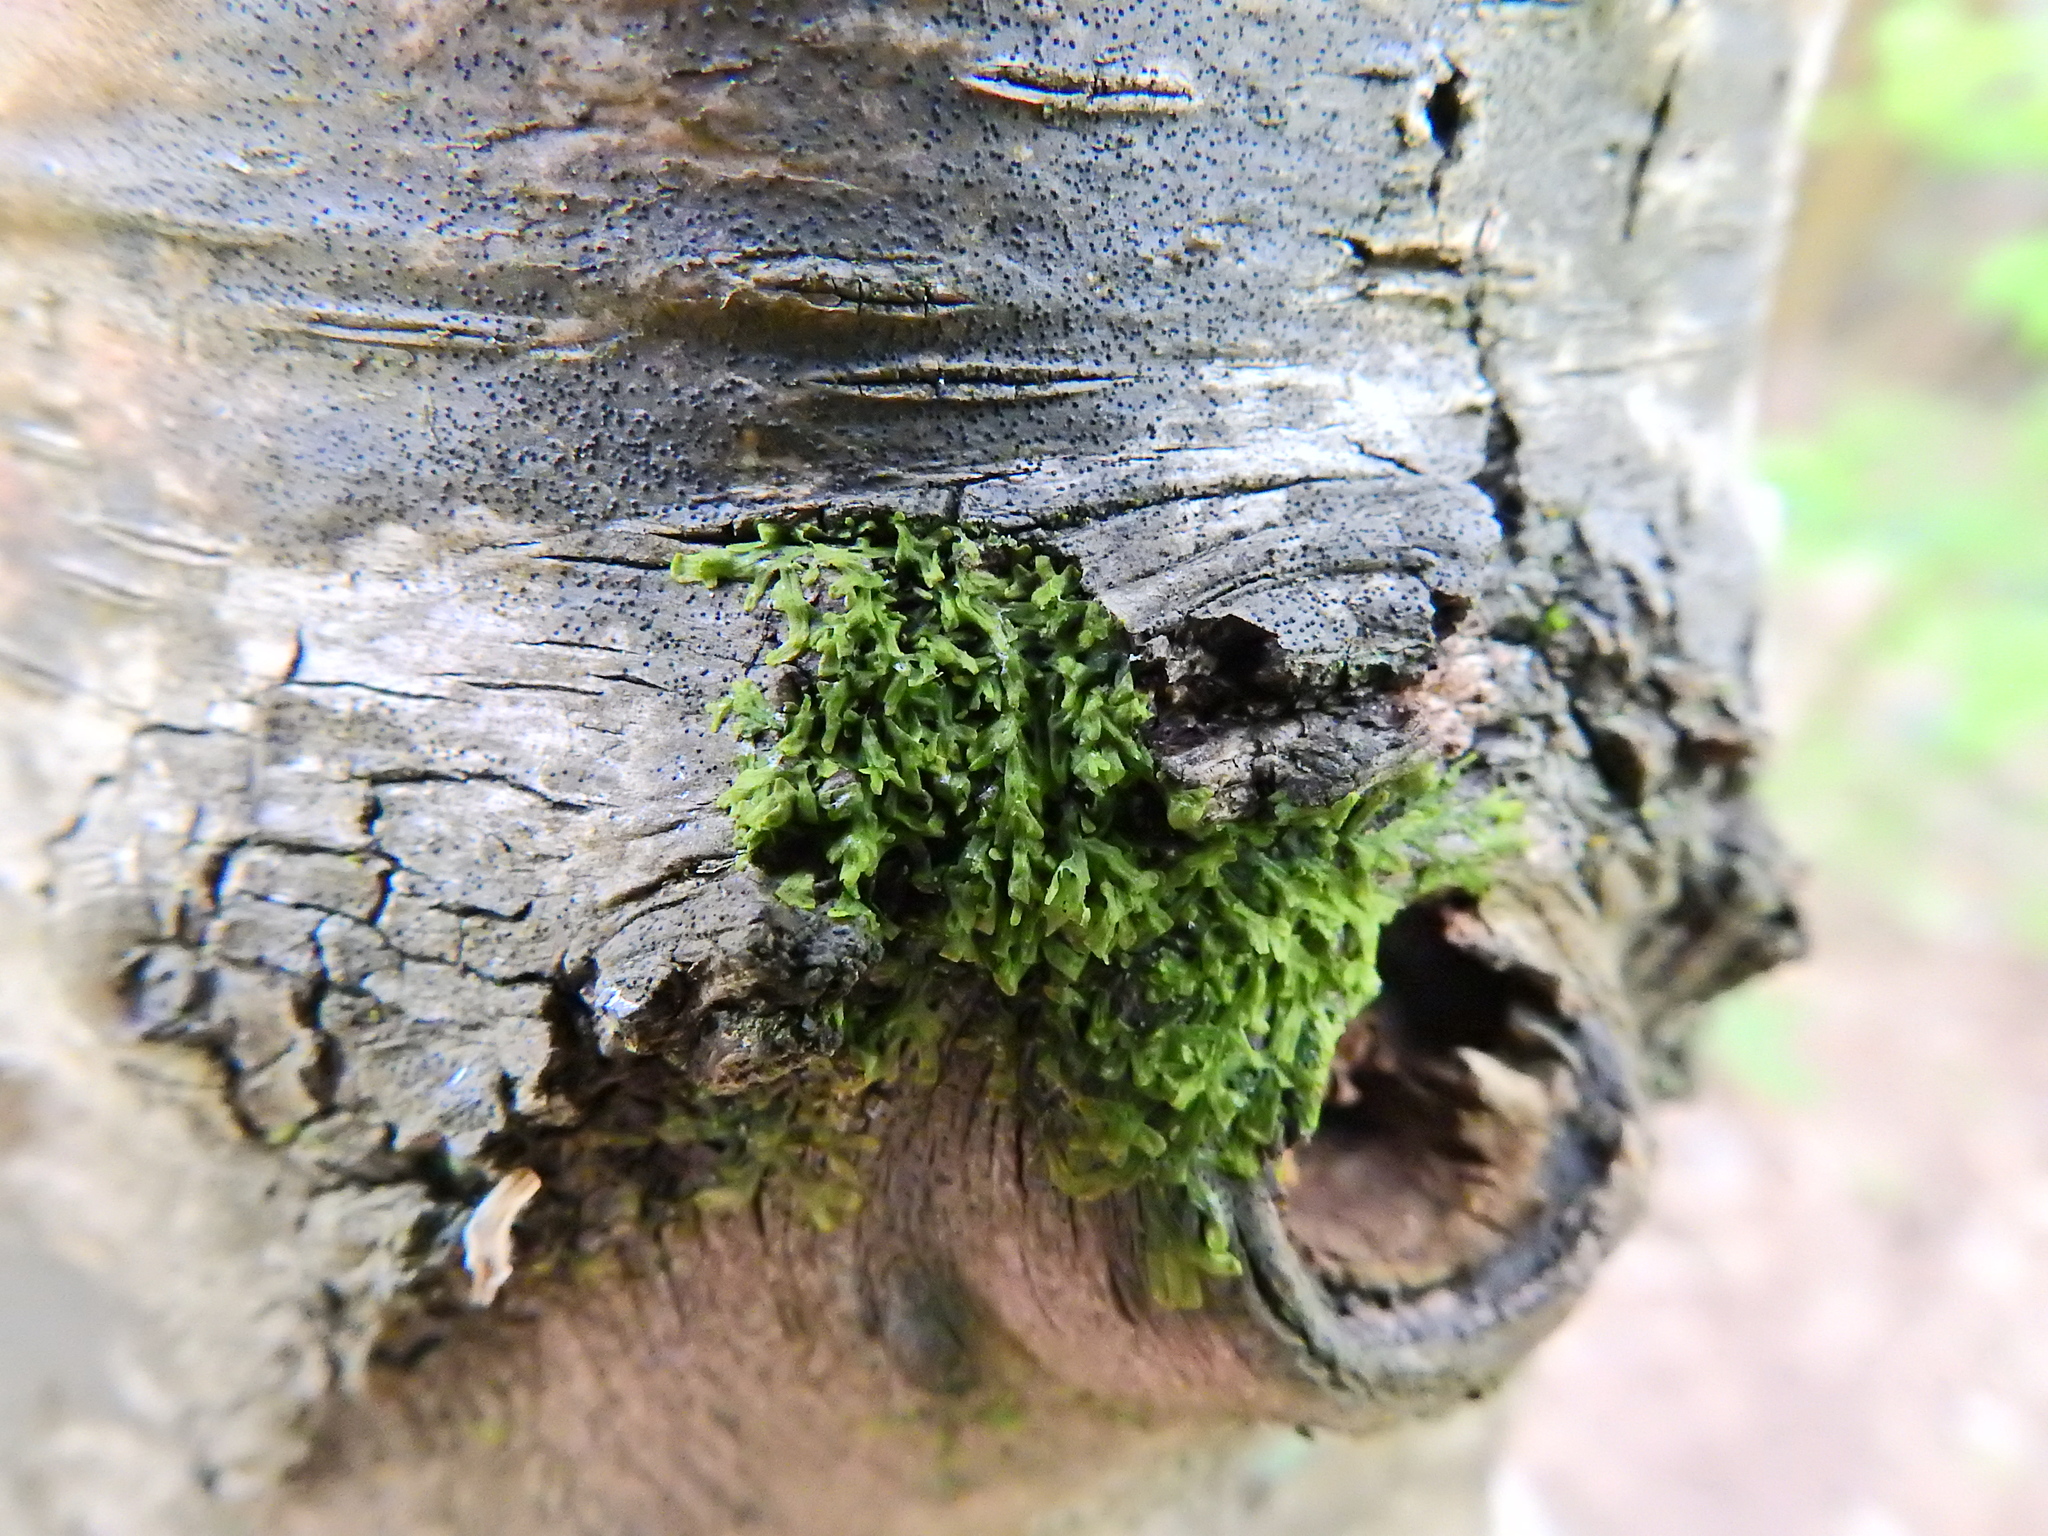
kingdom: Plantae
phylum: Marchantiophyta
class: Jungermanniopsida
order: Metzgeriales
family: Metzgeriaceae
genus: Metzgeria
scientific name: Metzgeria furcata
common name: Forked veilwort
